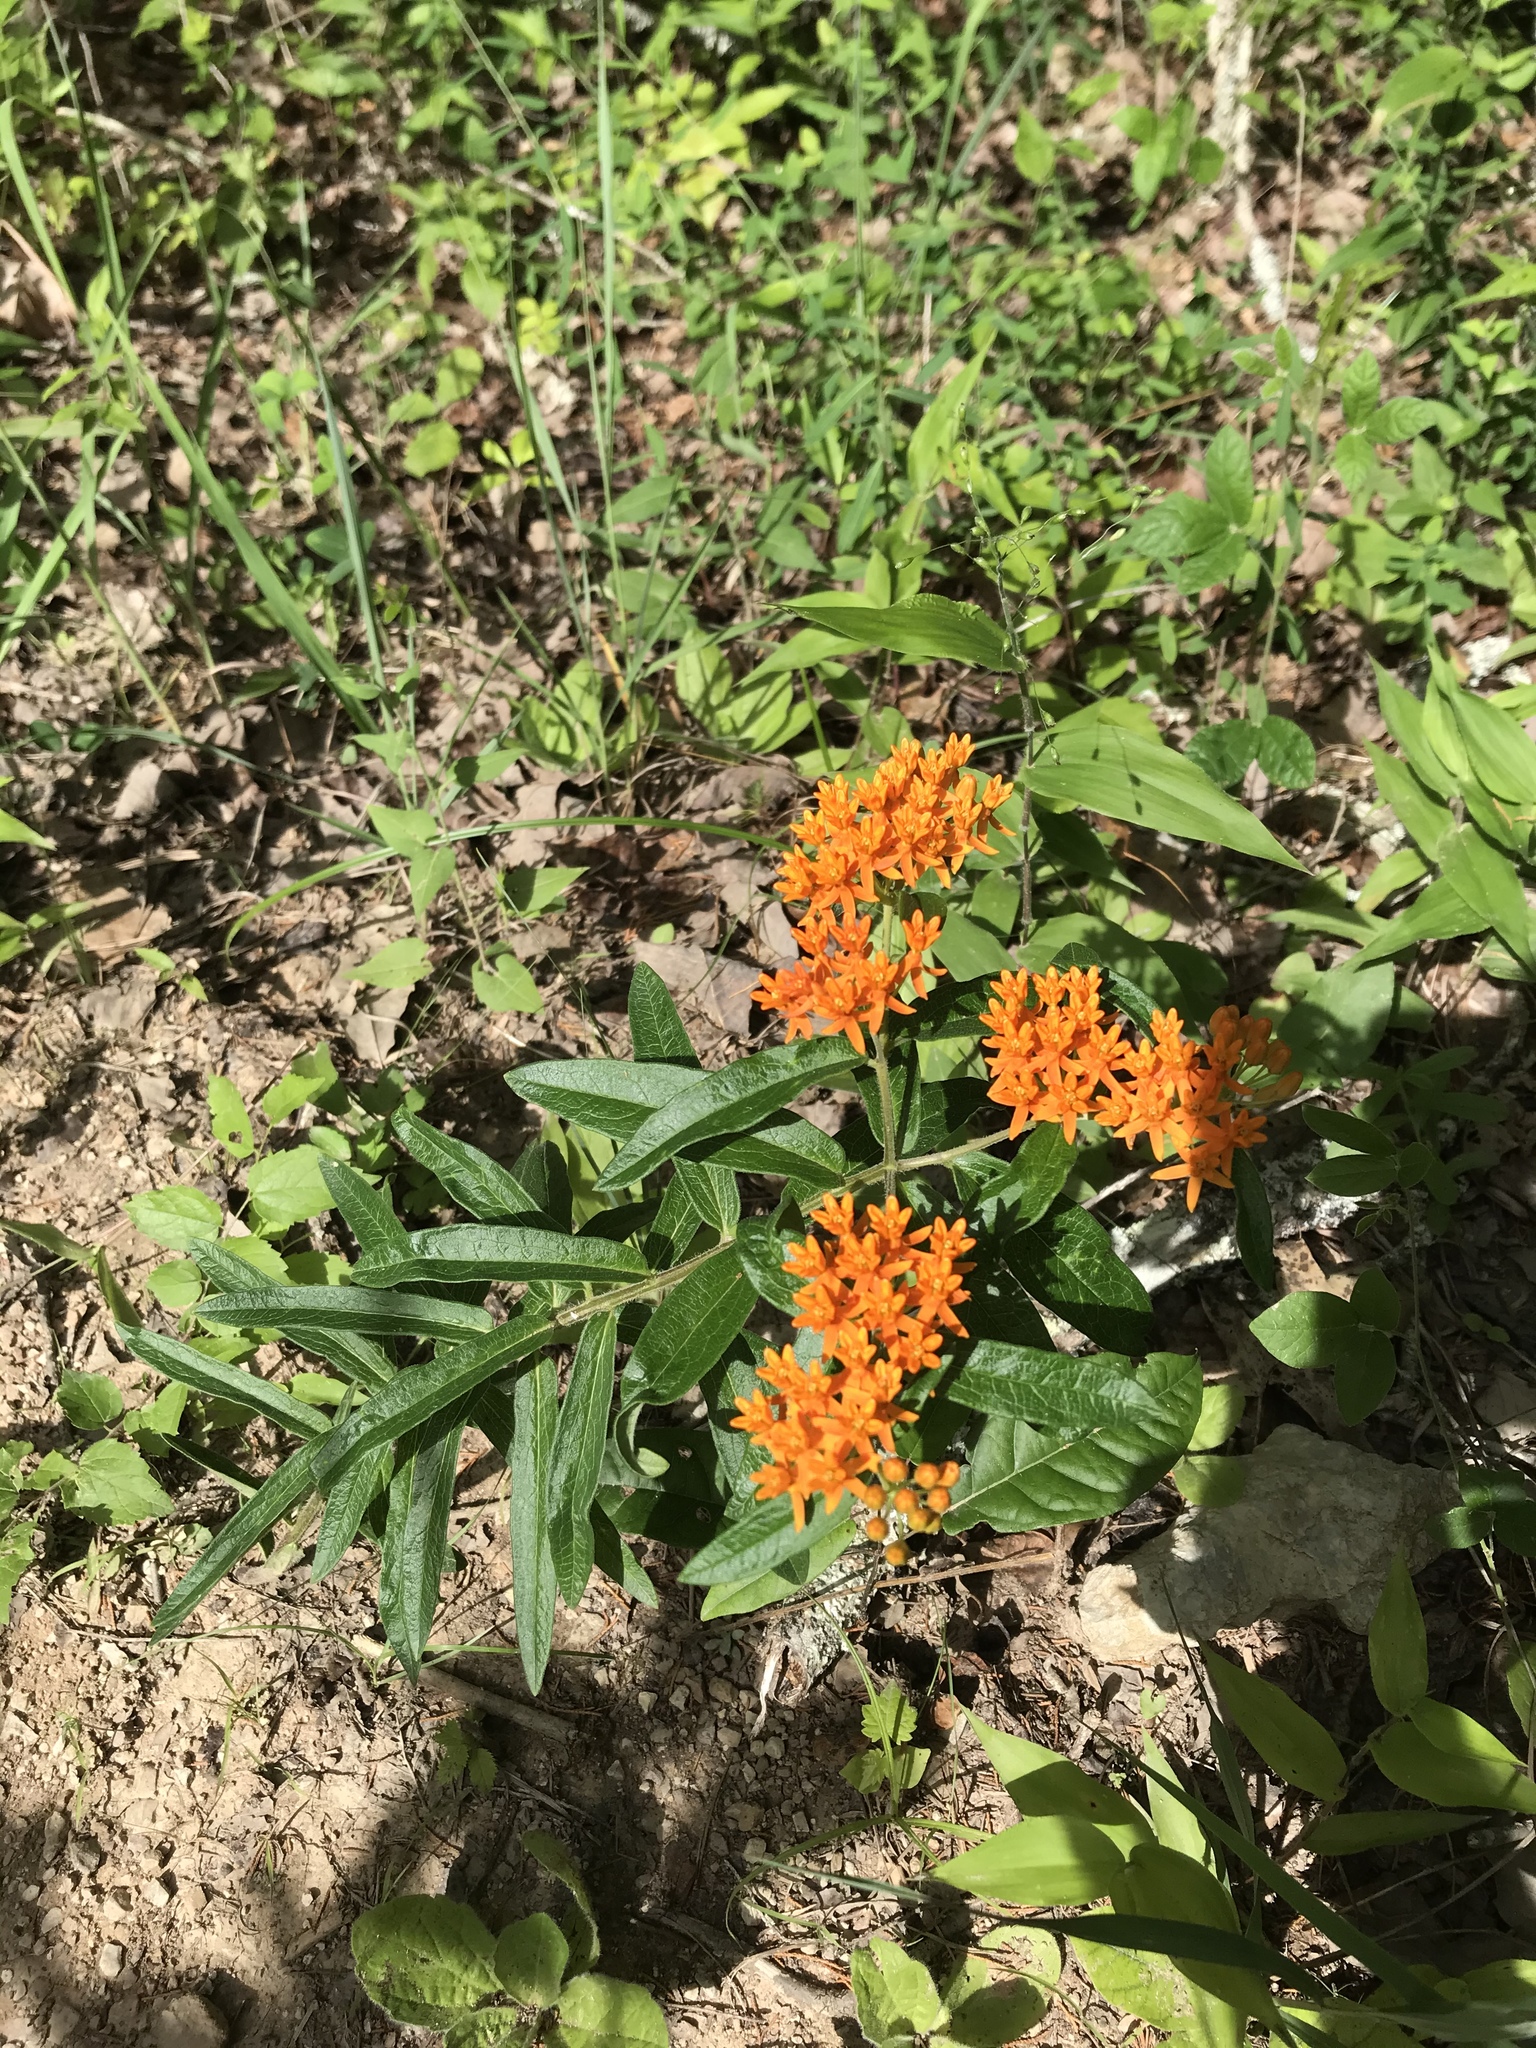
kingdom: Plantae
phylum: Tracheophyta
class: Magnoliopsida
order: Gentianales
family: Apocynaceae
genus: Asclepias
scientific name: Asclepias tuberosa
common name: Butterfly milkweed
